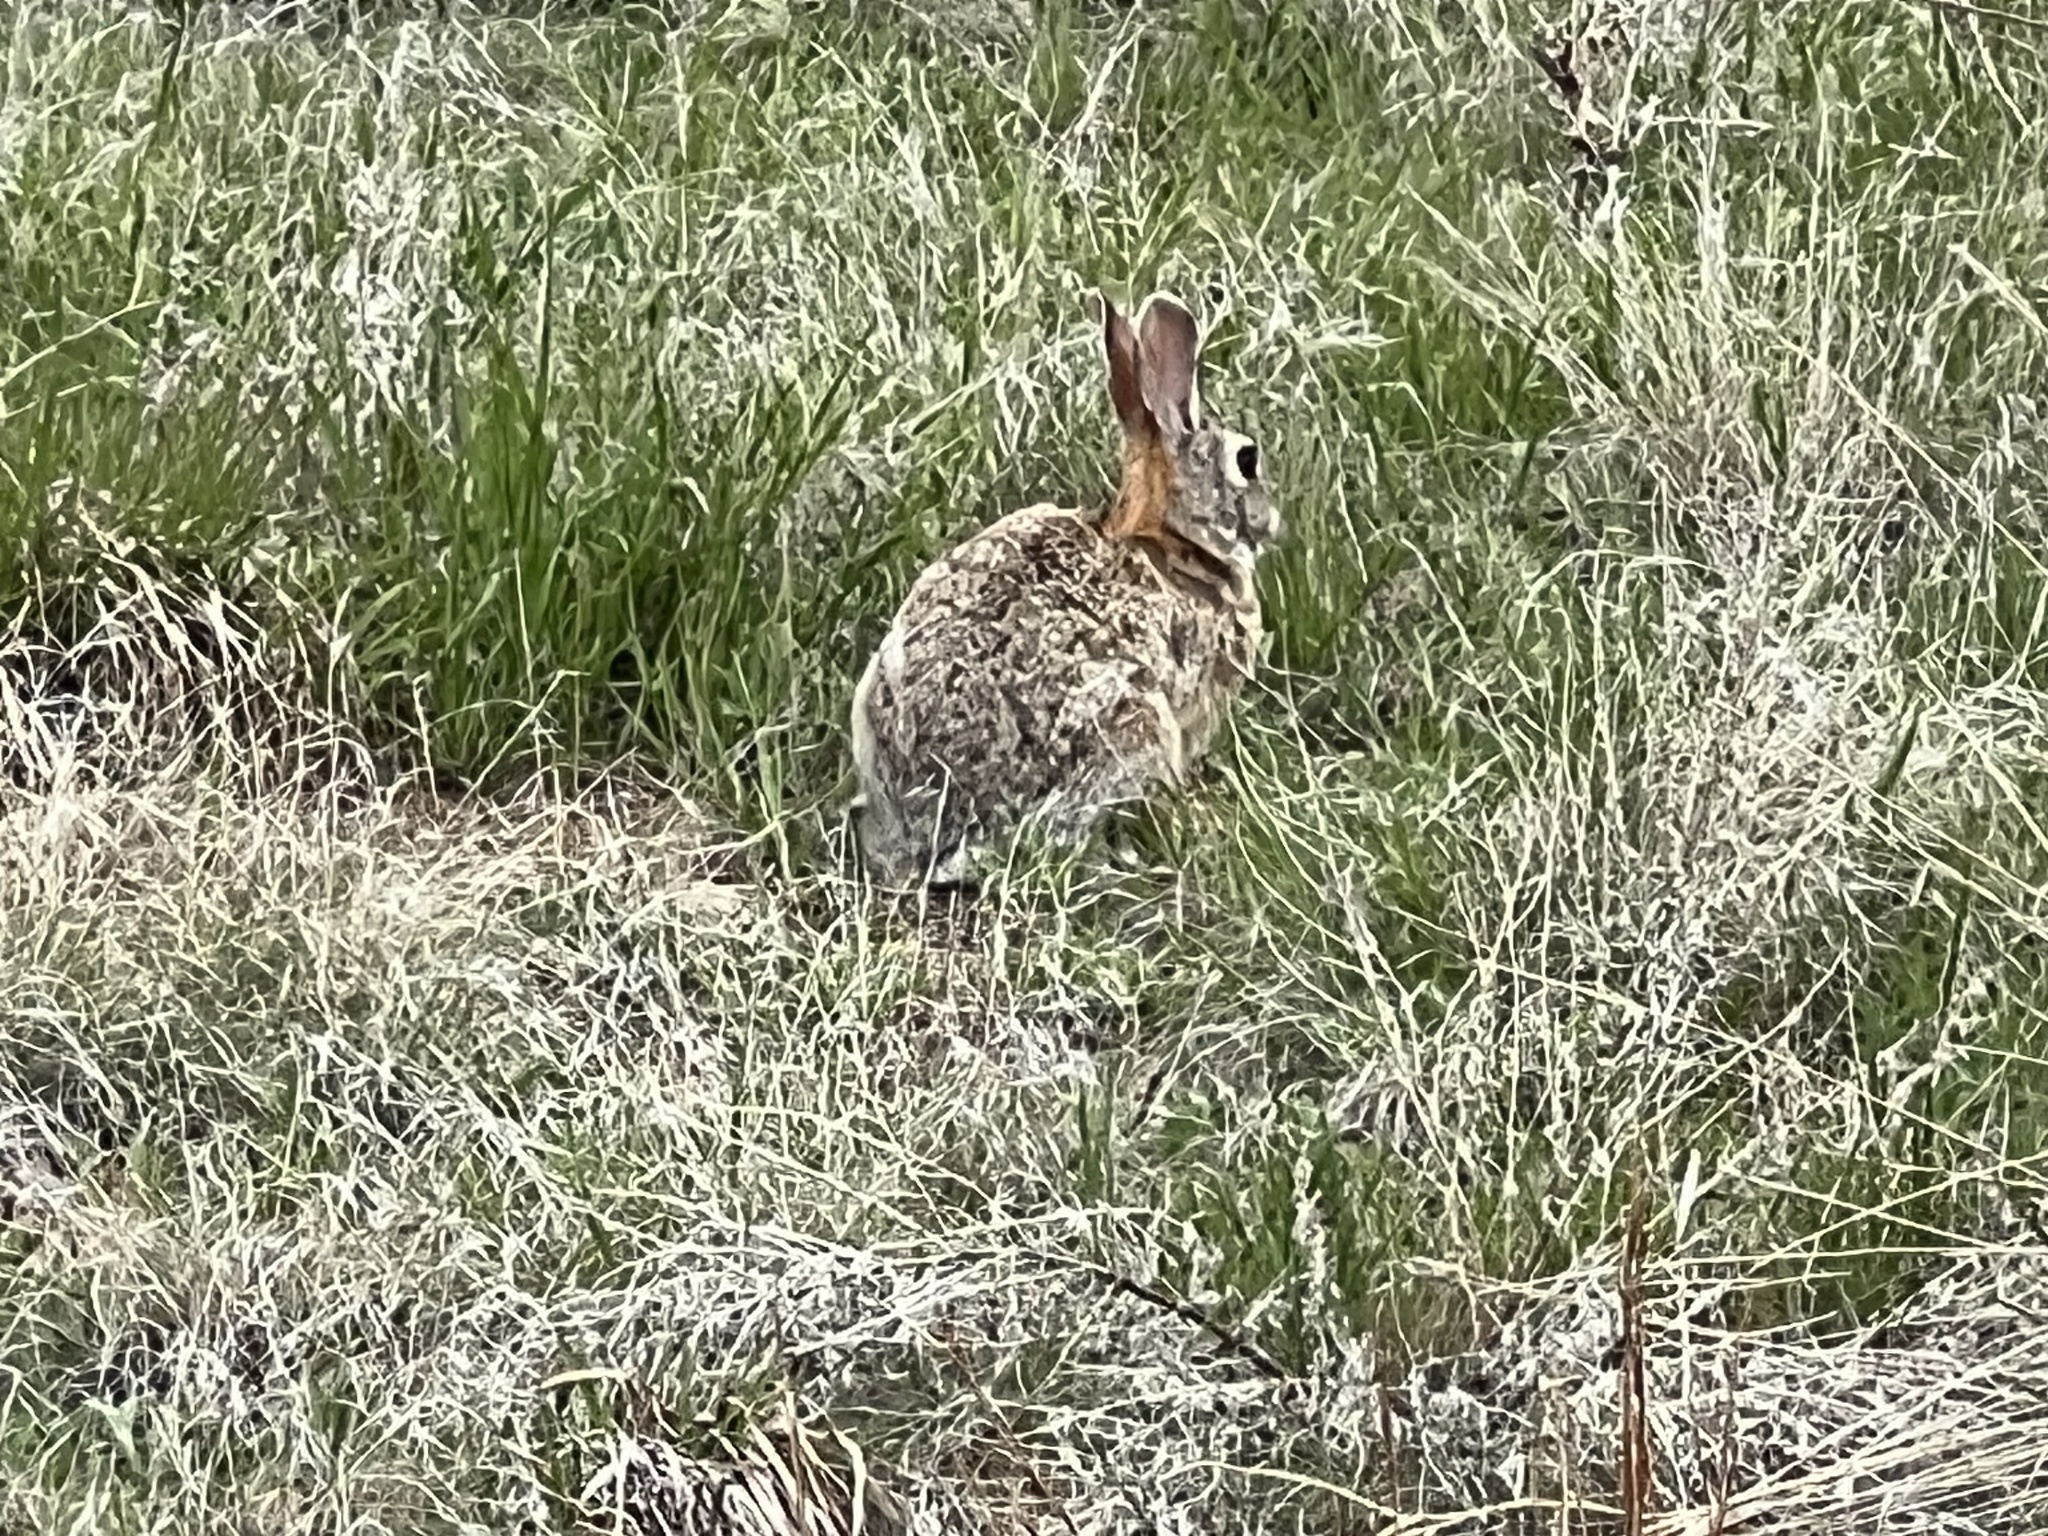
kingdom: Animalia
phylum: Chordata
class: Mammalia
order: Lagomorpha
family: Leporidae
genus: Sylvilagus
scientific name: Sylvilagus audubonii
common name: Desert cottontail
